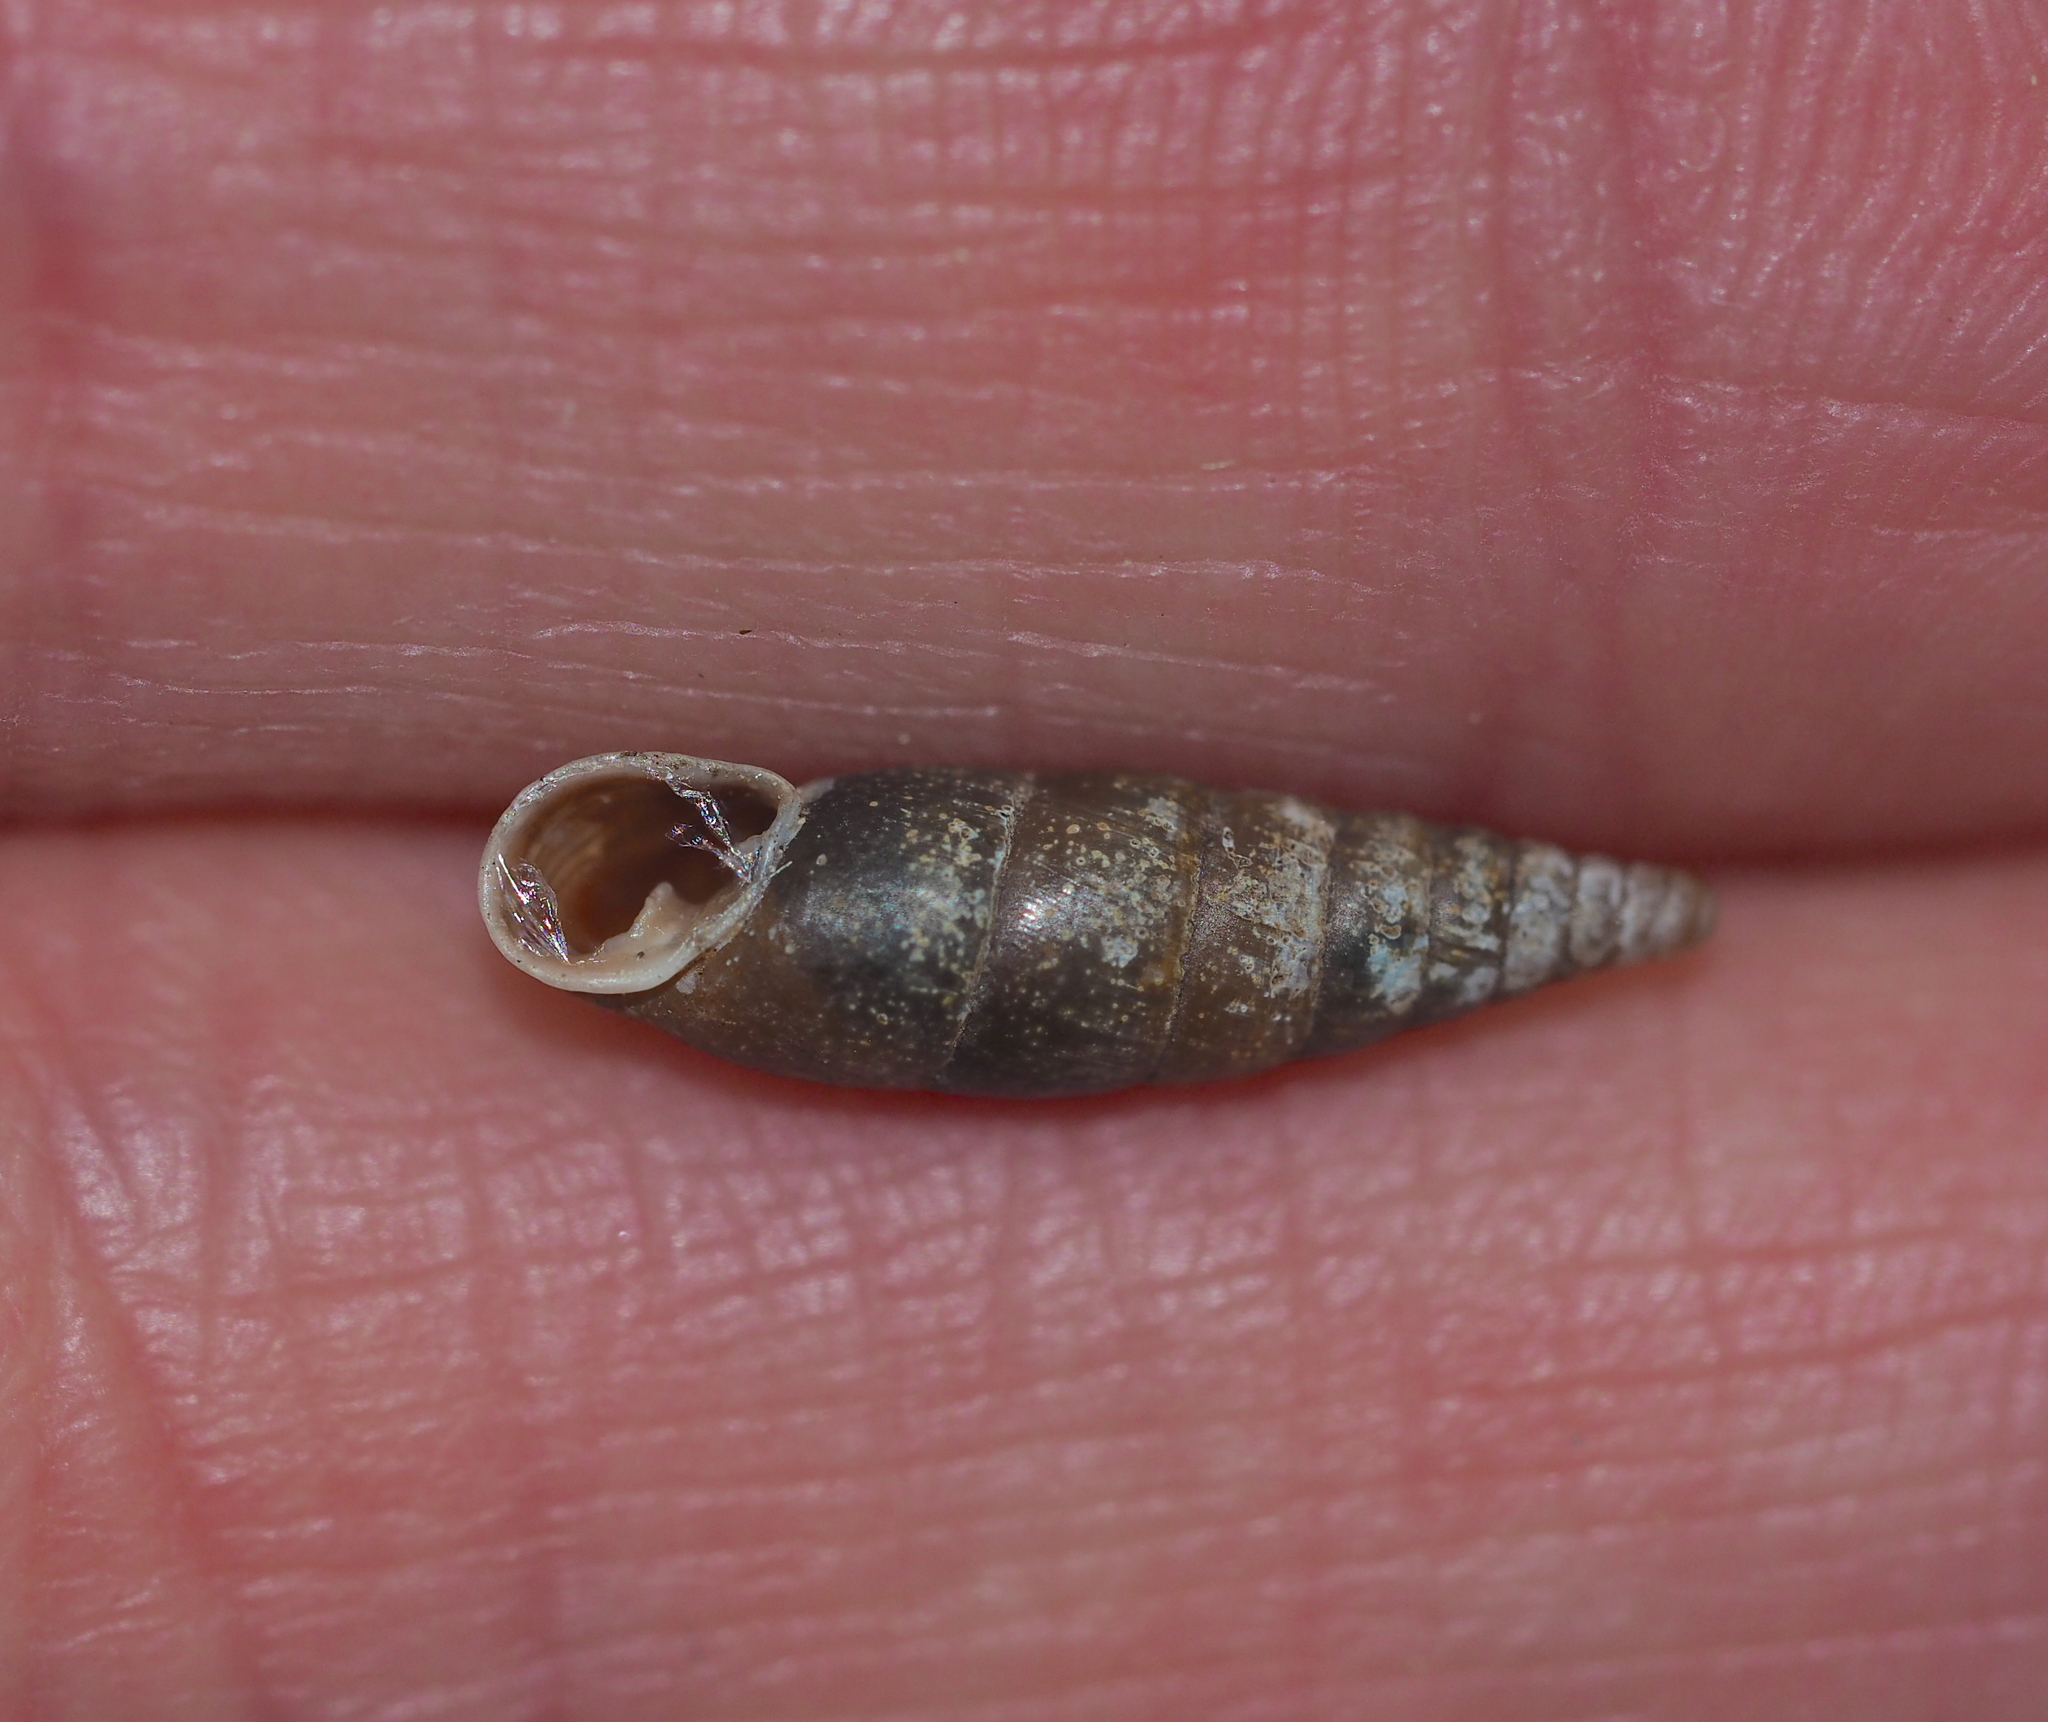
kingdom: Animalia
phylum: Mollusca
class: Gastropoda
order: Stylommatophora
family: Clausiliidae
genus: Cochlodina
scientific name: Cochlodina laminata
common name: Plaited door snail
